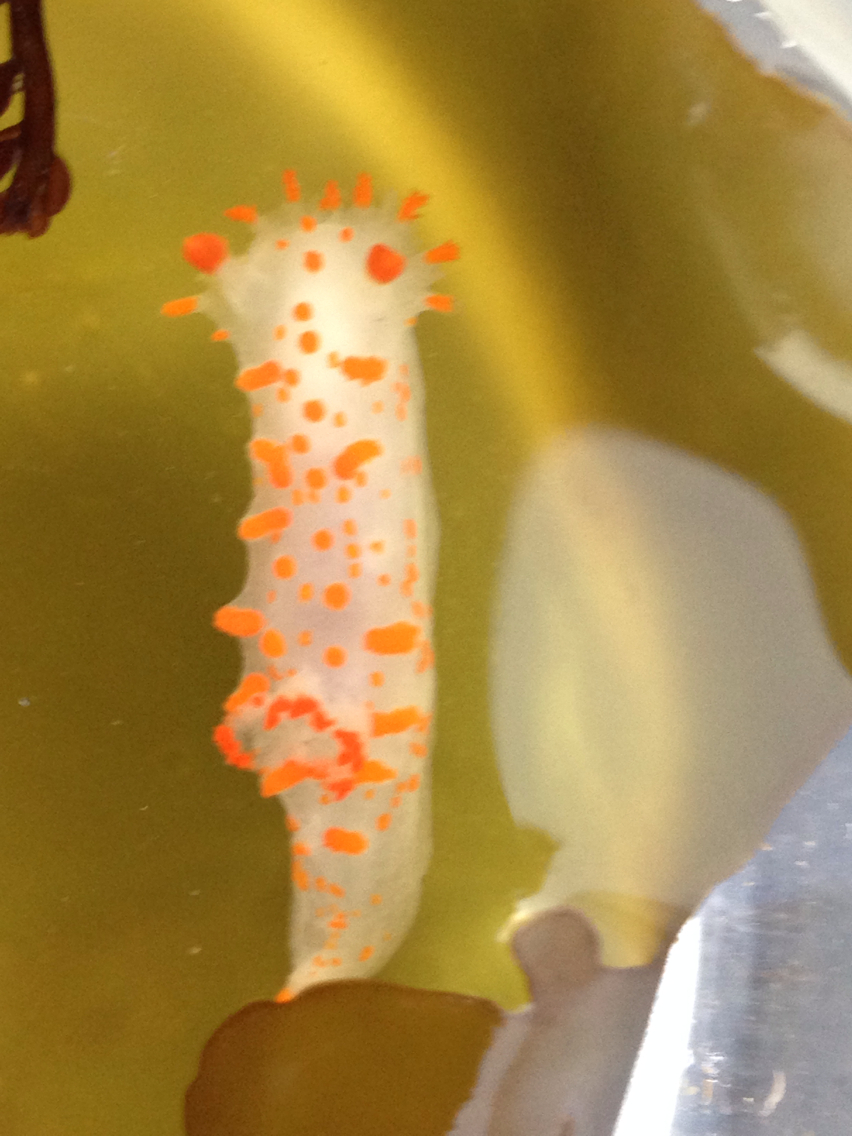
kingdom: Animalia
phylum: Mollusca
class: Gastropoda
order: Nudibranchia
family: Polyceridae
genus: Triopha
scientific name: Triopha catalinae
